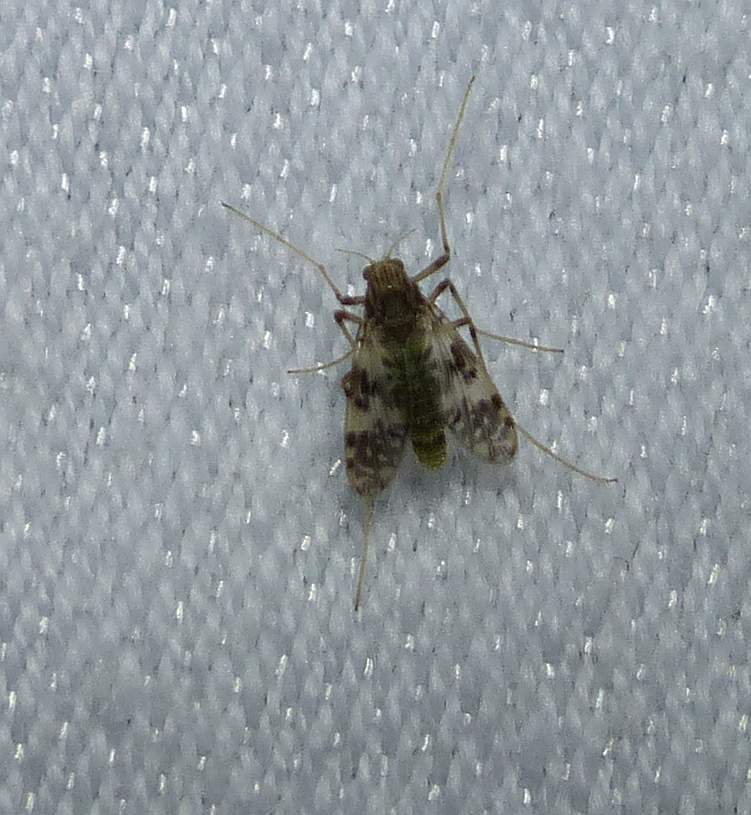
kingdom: Animalia
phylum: Arthropoda
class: Insecta
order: Diptera
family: Chironomidae
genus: Psectrotanypus
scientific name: Psectrotanypus dyari
